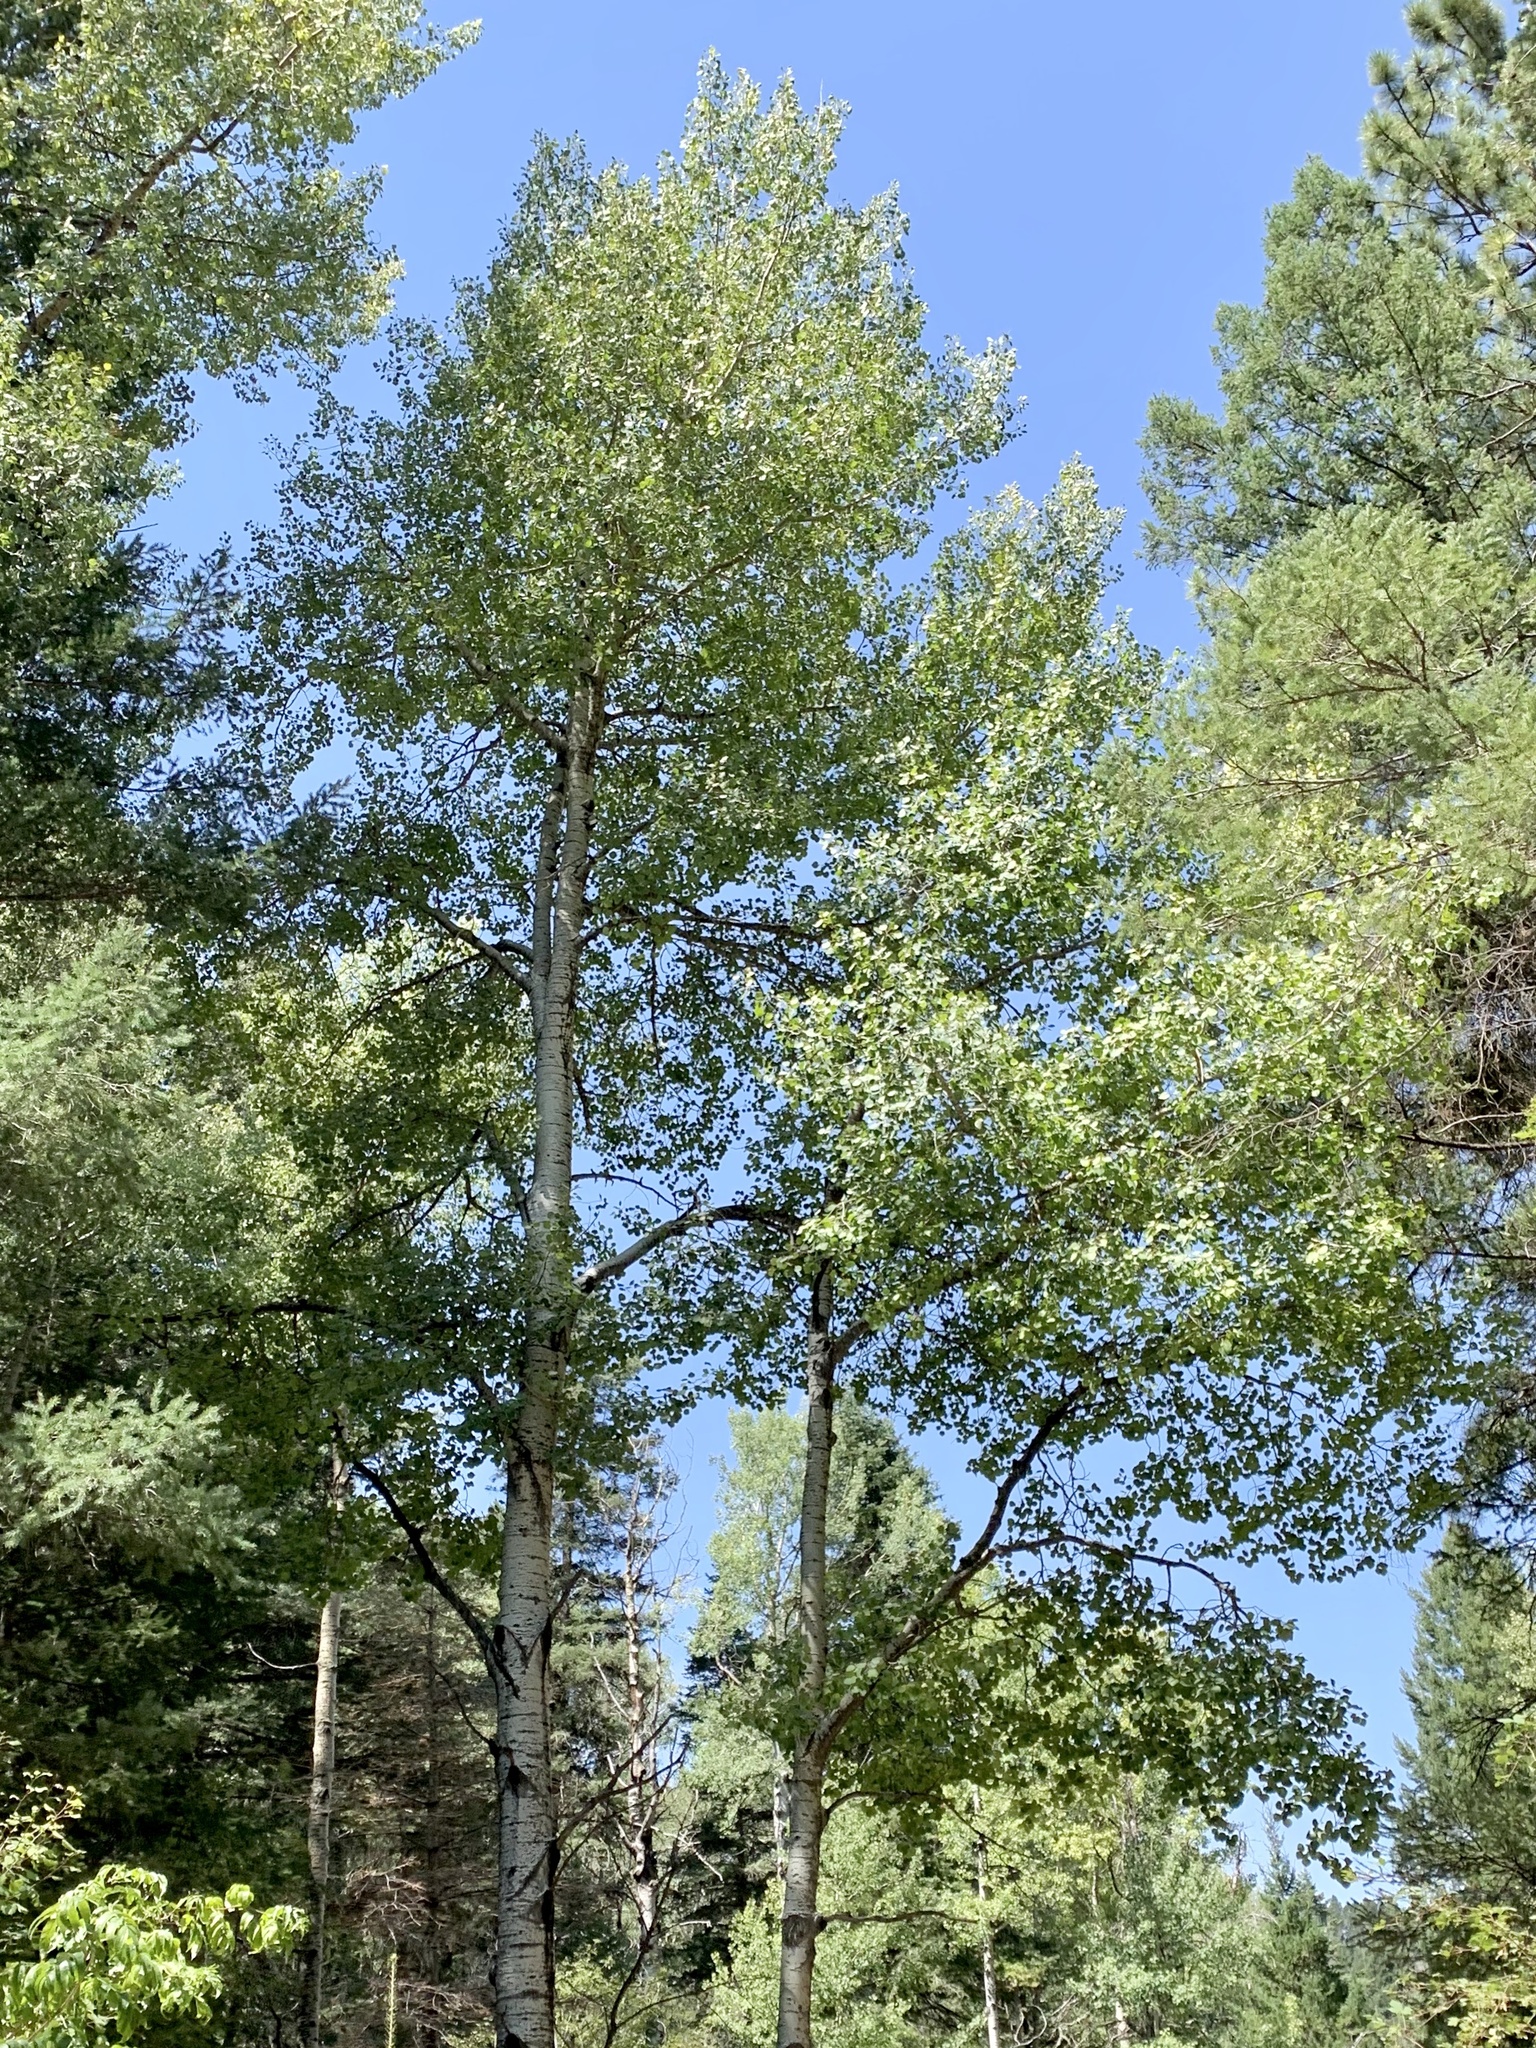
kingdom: Plantae
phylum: Tracheophyta
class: Magnoliopsida
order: Malpighiales
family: Salicaceae
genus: Populus
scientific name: Populus tremuloides
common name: Quaking aspen
